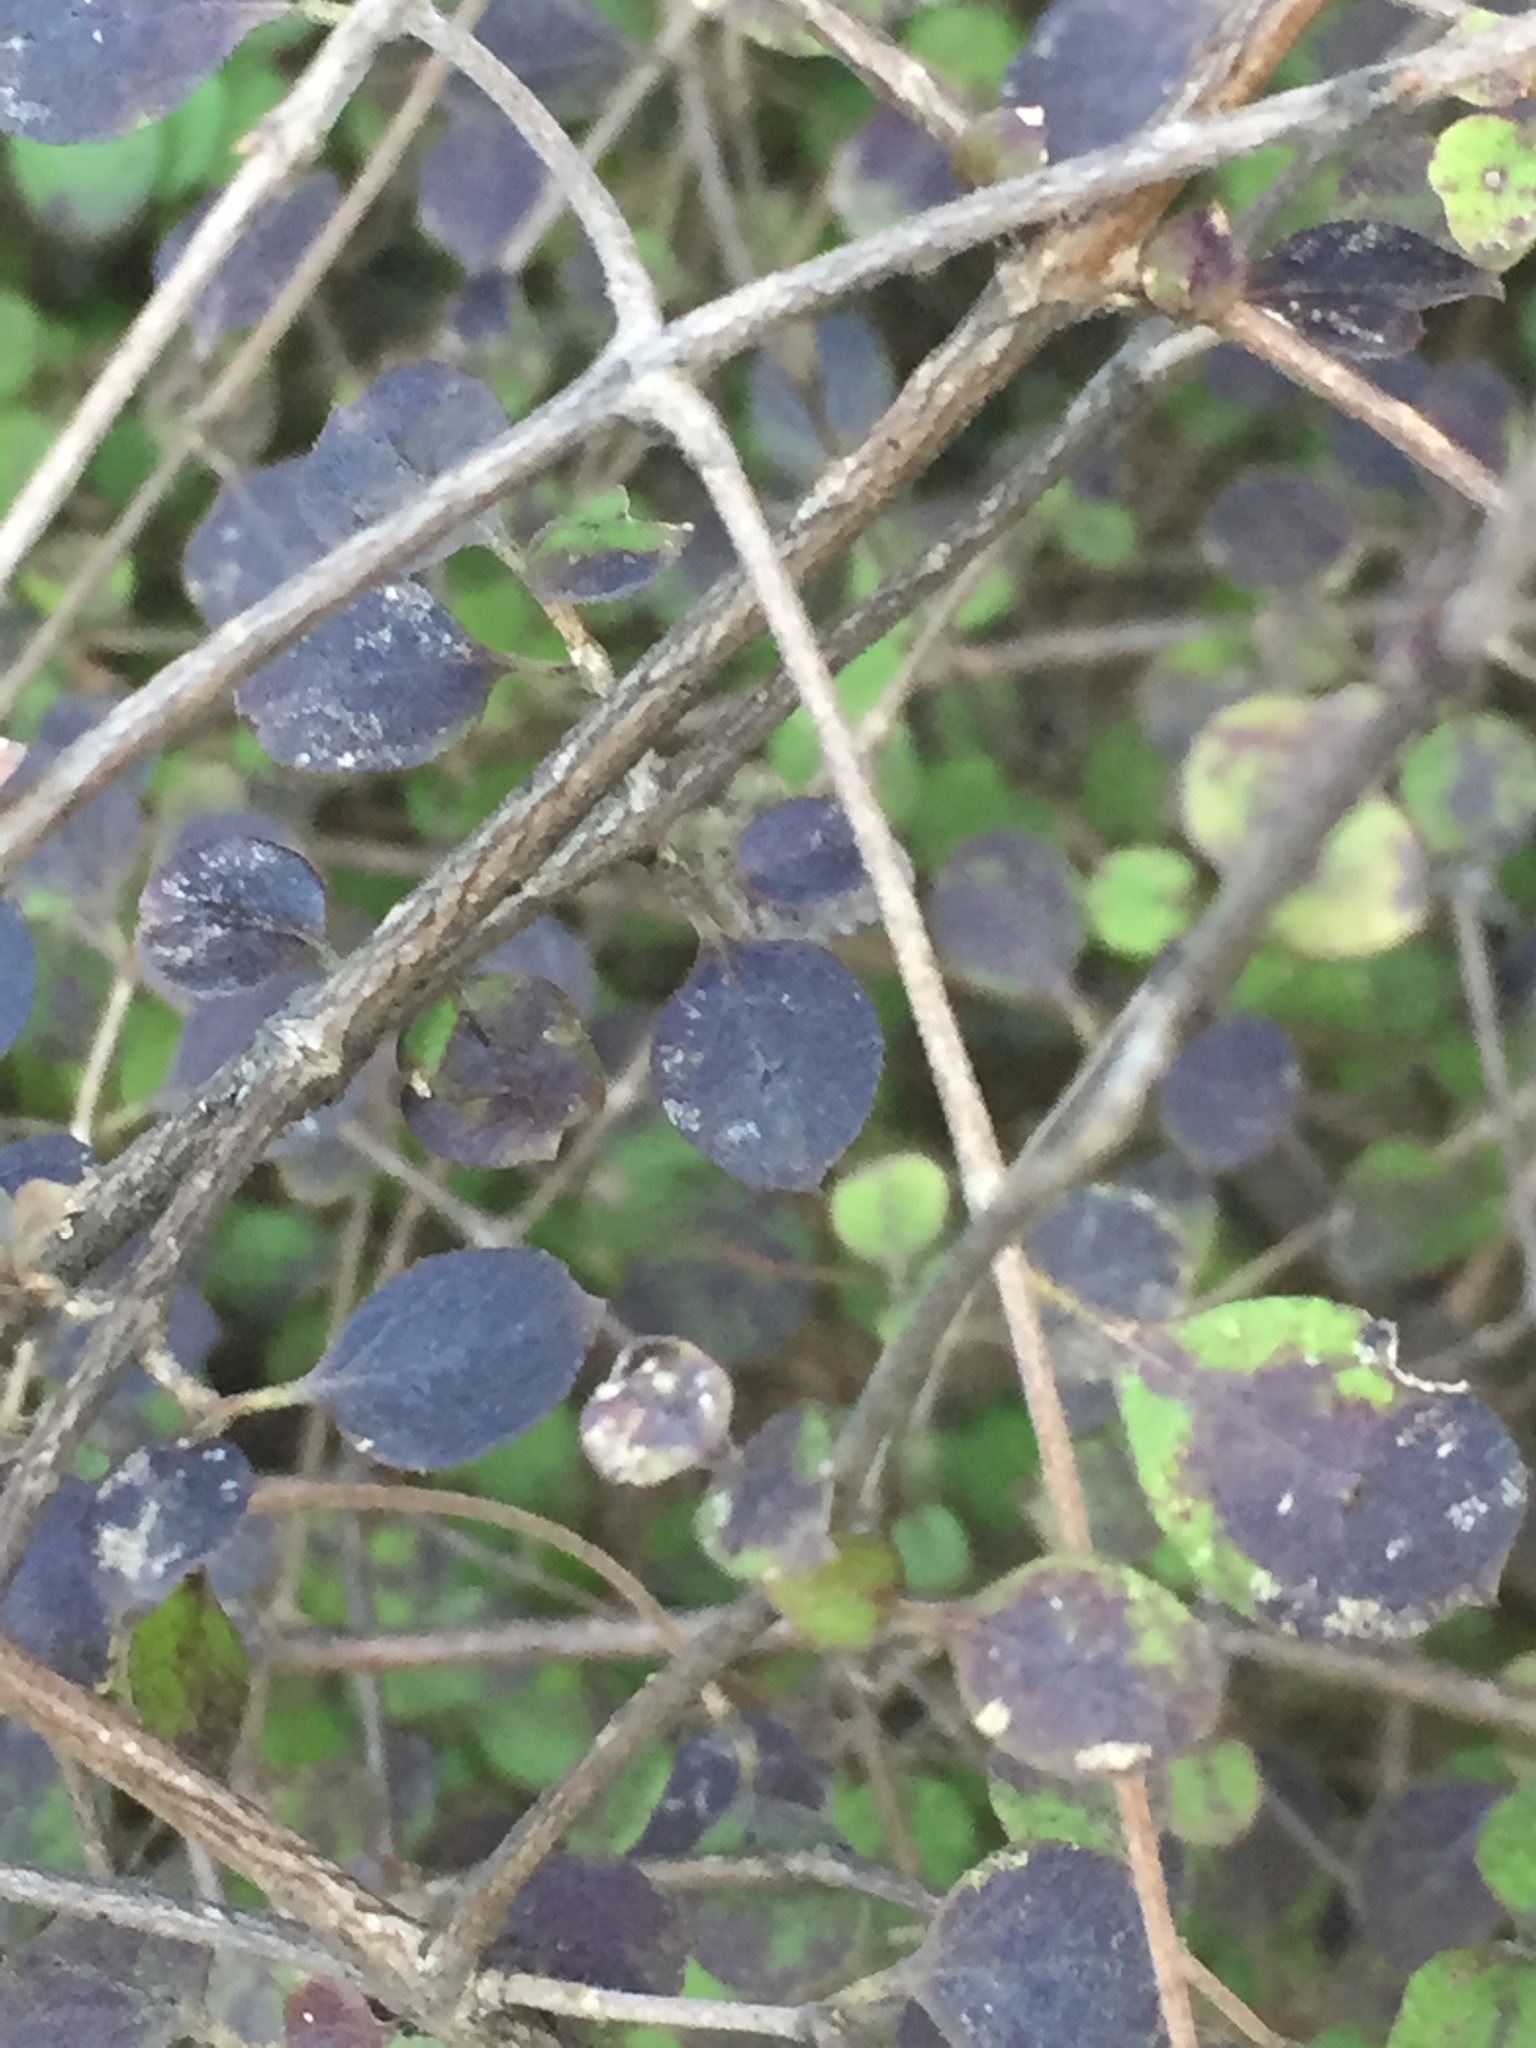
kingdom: Plantae
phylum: Tracheophyta
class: Magnoliopsida
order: Gentianales
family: Rubiaceae
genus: Coprosma
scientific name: Coprosma rotundifolia
